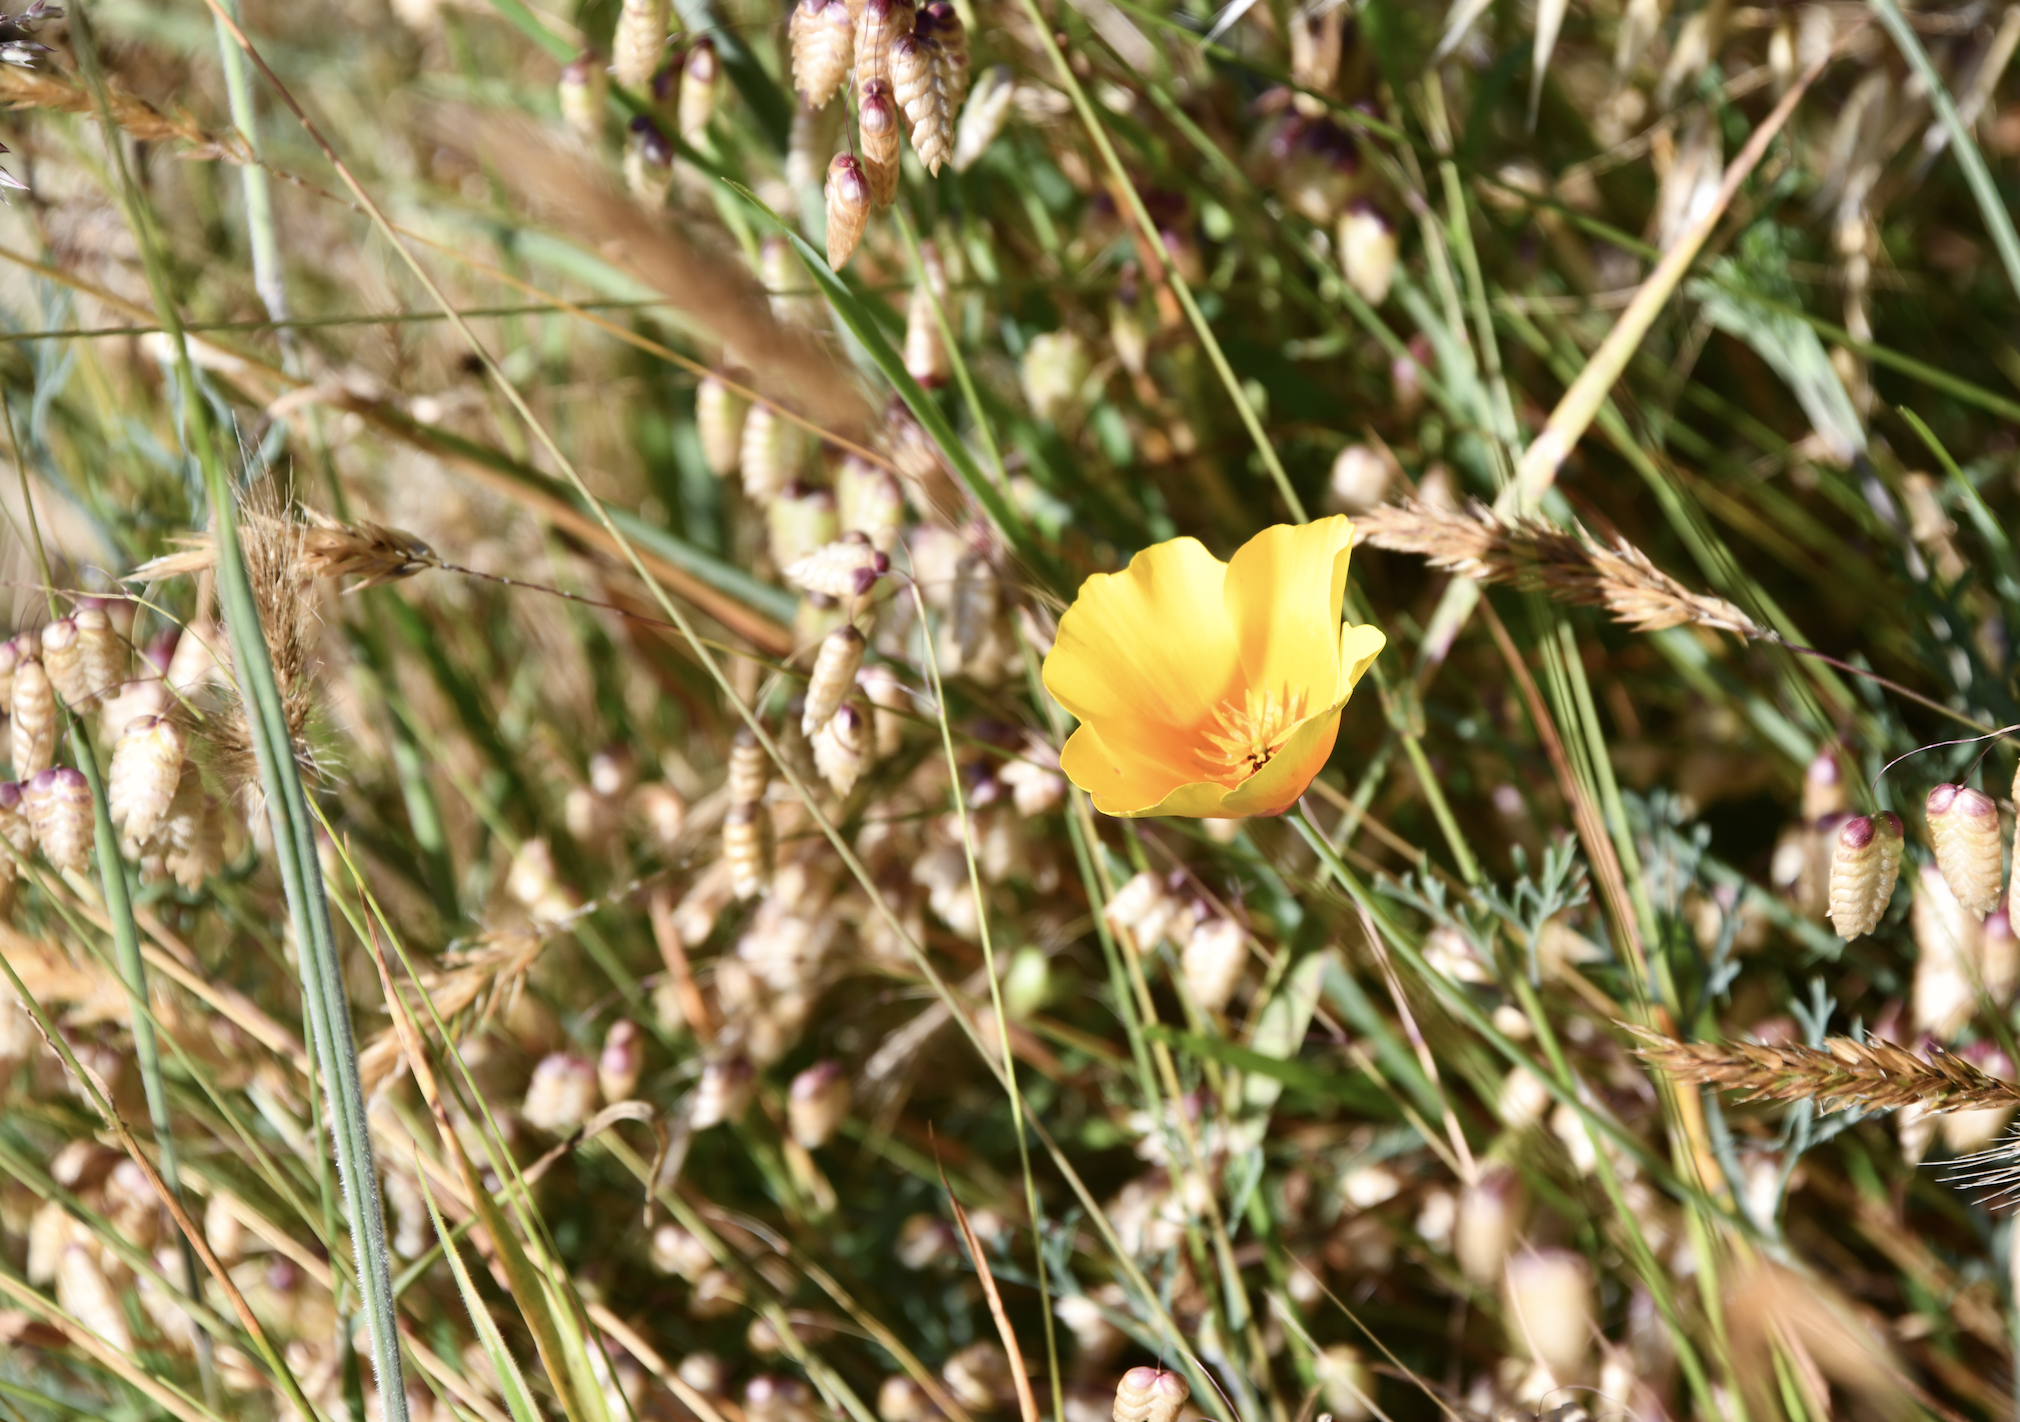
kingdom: Plantae
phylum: Tracheophyta
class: Magnoliopsida
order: Ranunculales
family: Papaveraceae
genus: Eschscholzia
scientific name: Eschscholzia californica
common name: California poppy
